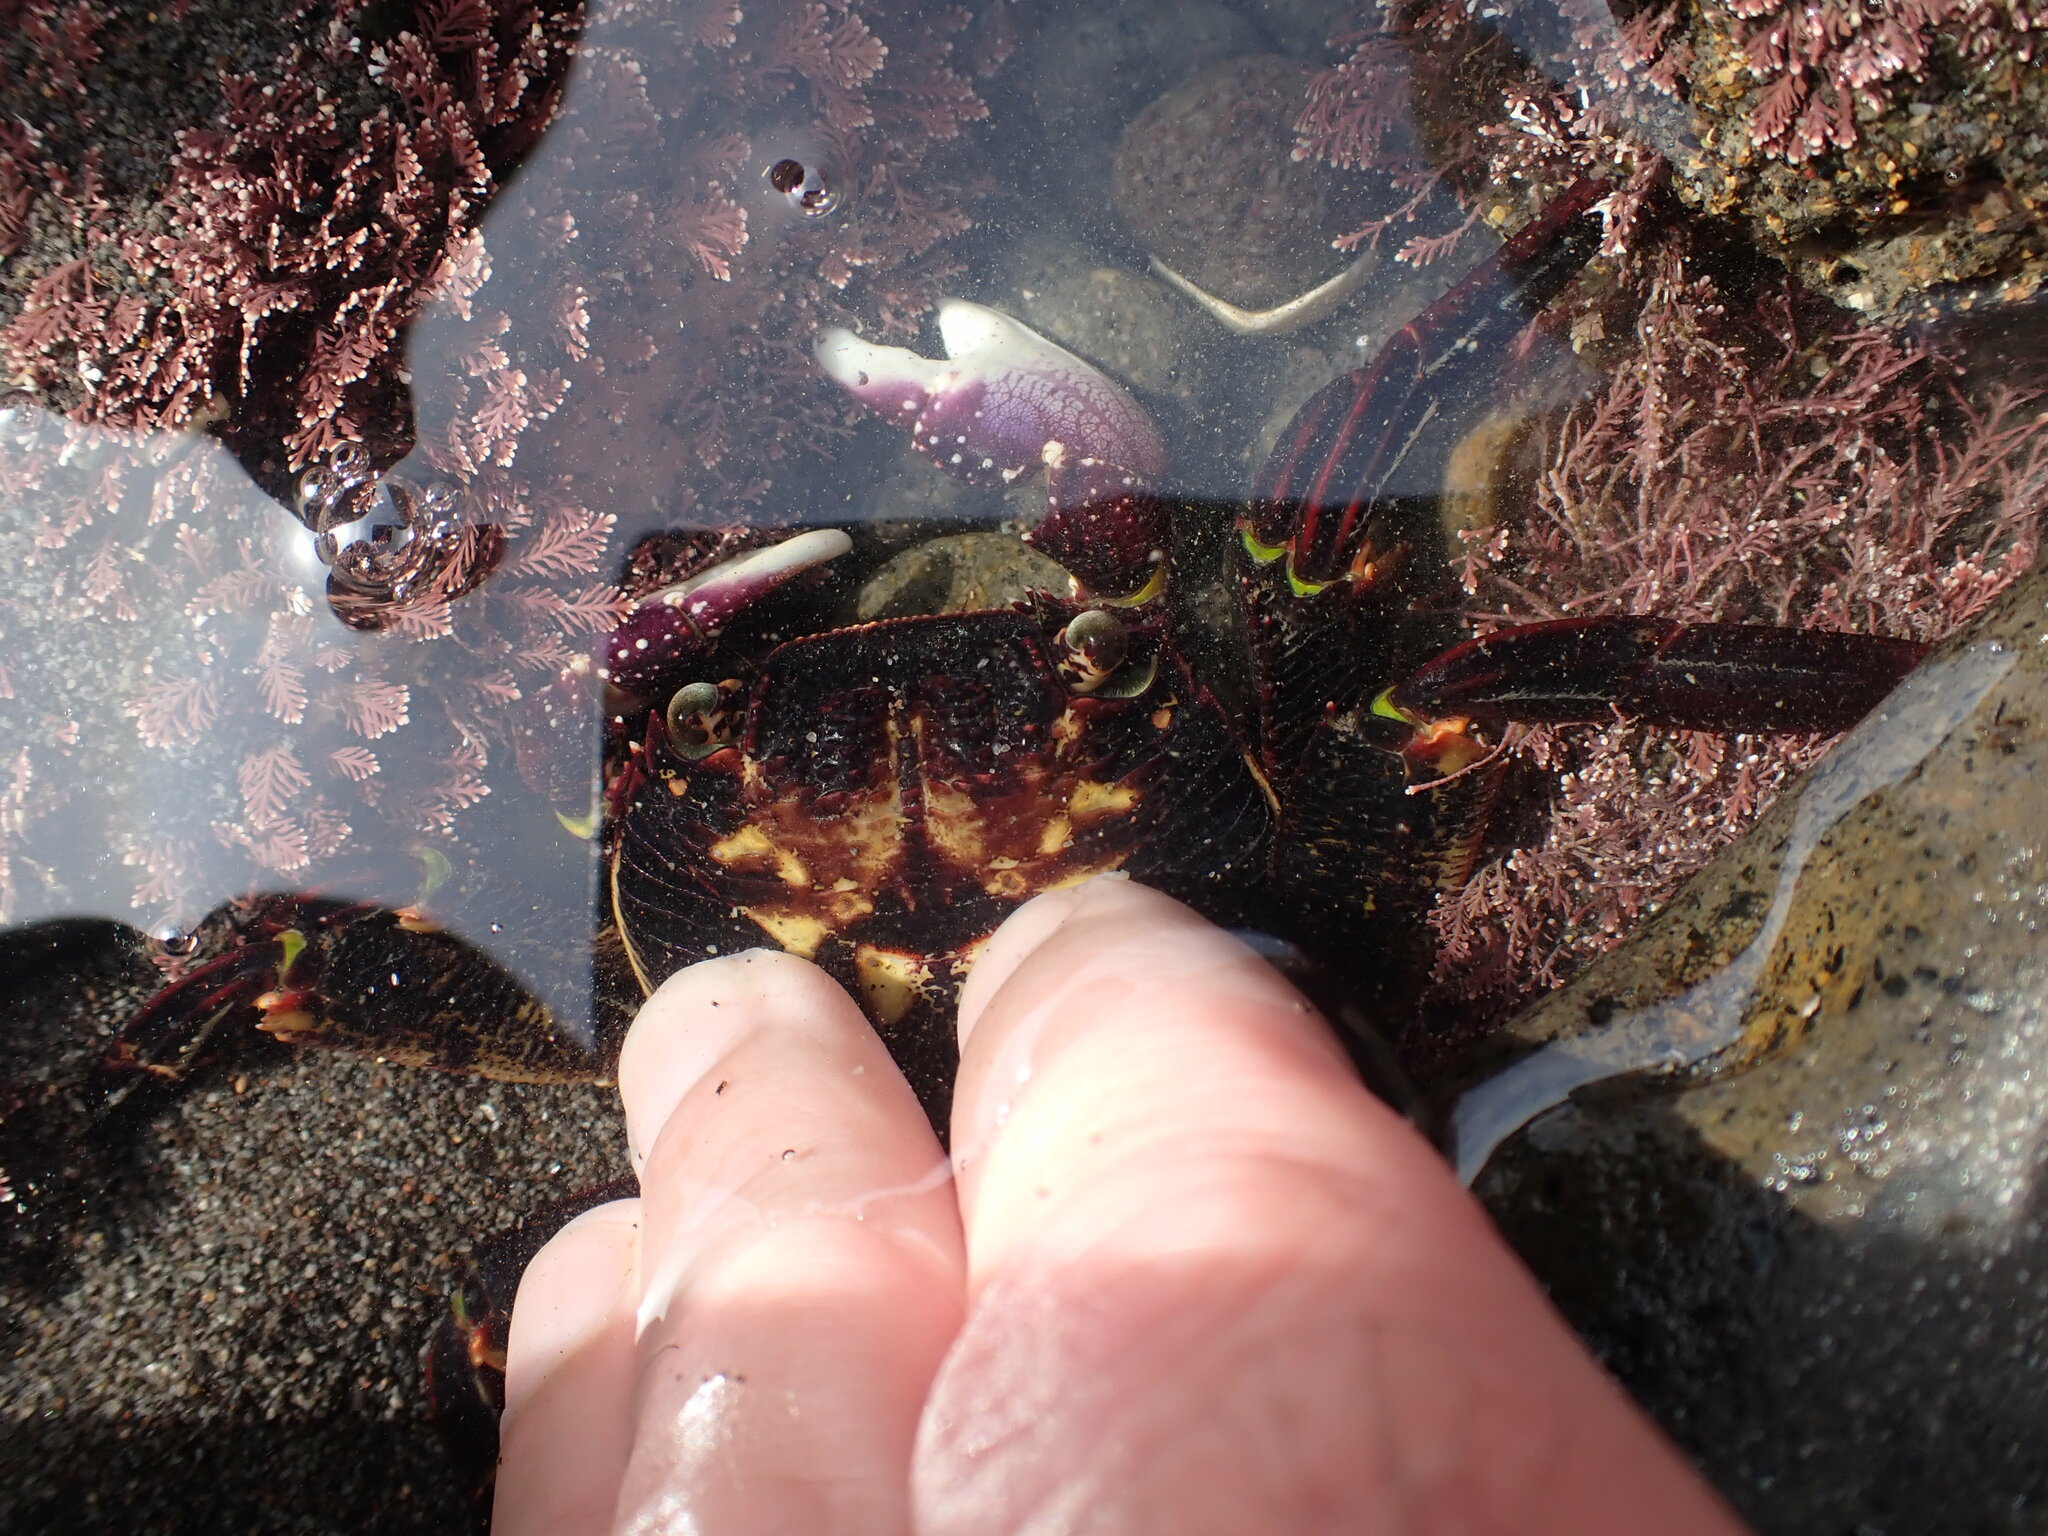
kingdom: Animalia
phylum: Arthropoda
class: Malacostraca
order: Decapoda
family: Grapsidae
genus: Leptograpsus
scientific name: Leptograpsus variegatus
